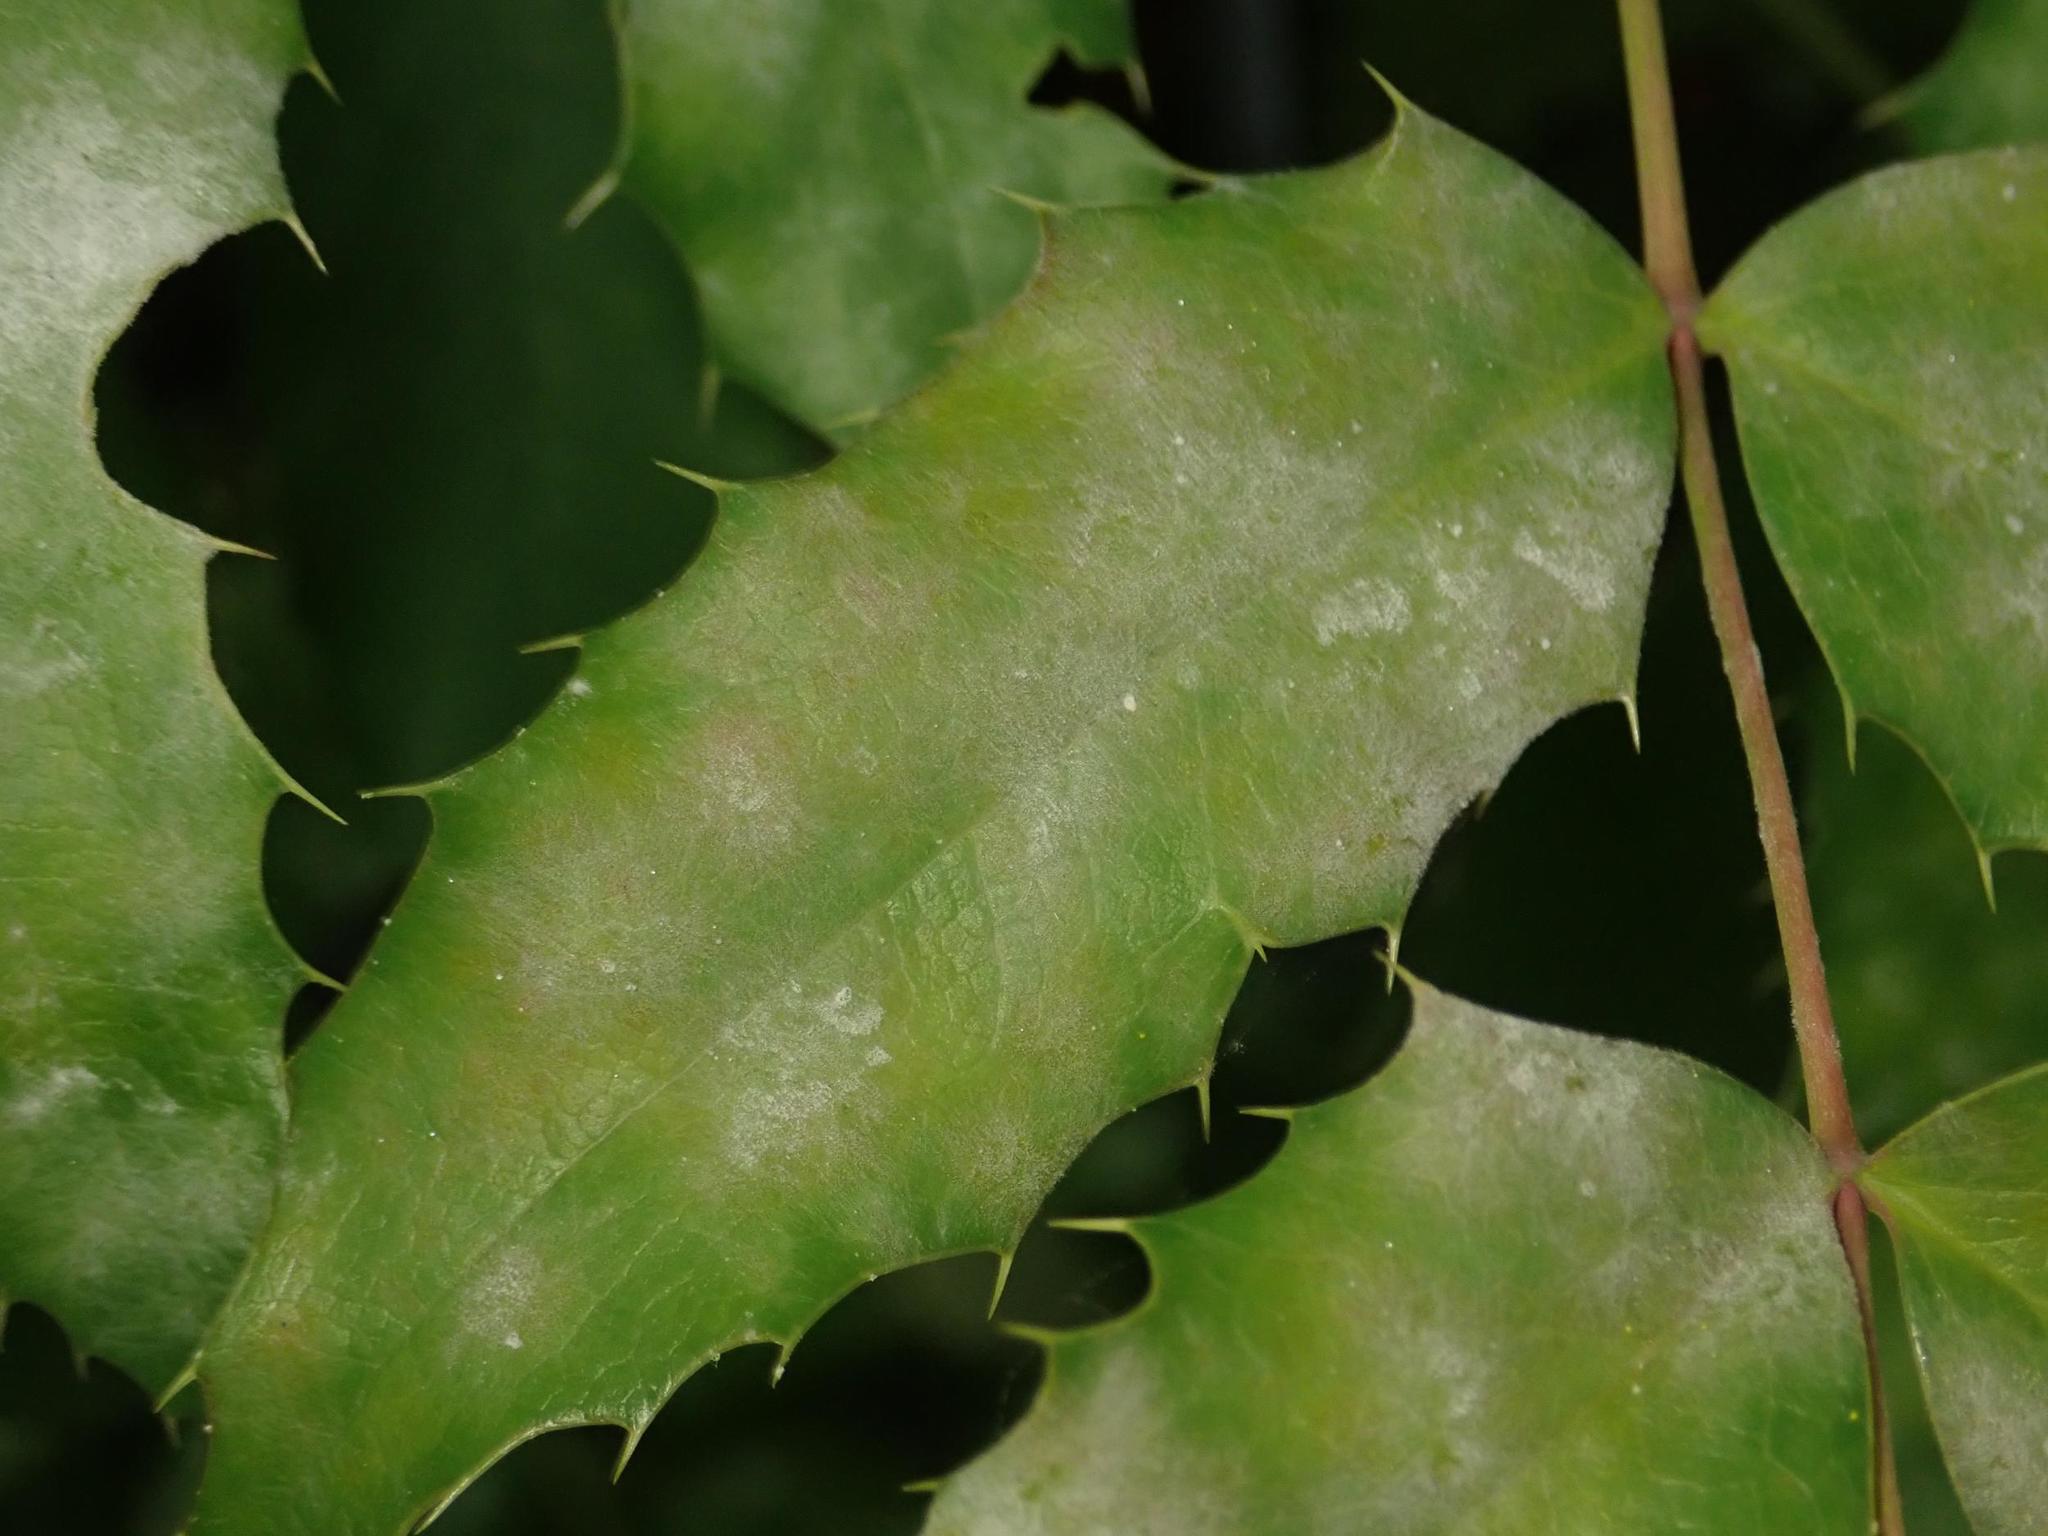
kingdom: Plantae
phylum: Tracheophyta
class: Magnoliopsida
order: Ranunculales
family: Berberidaceae
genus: Mahonia
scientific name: Mahonia aquifolium
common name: Oregon-grape
